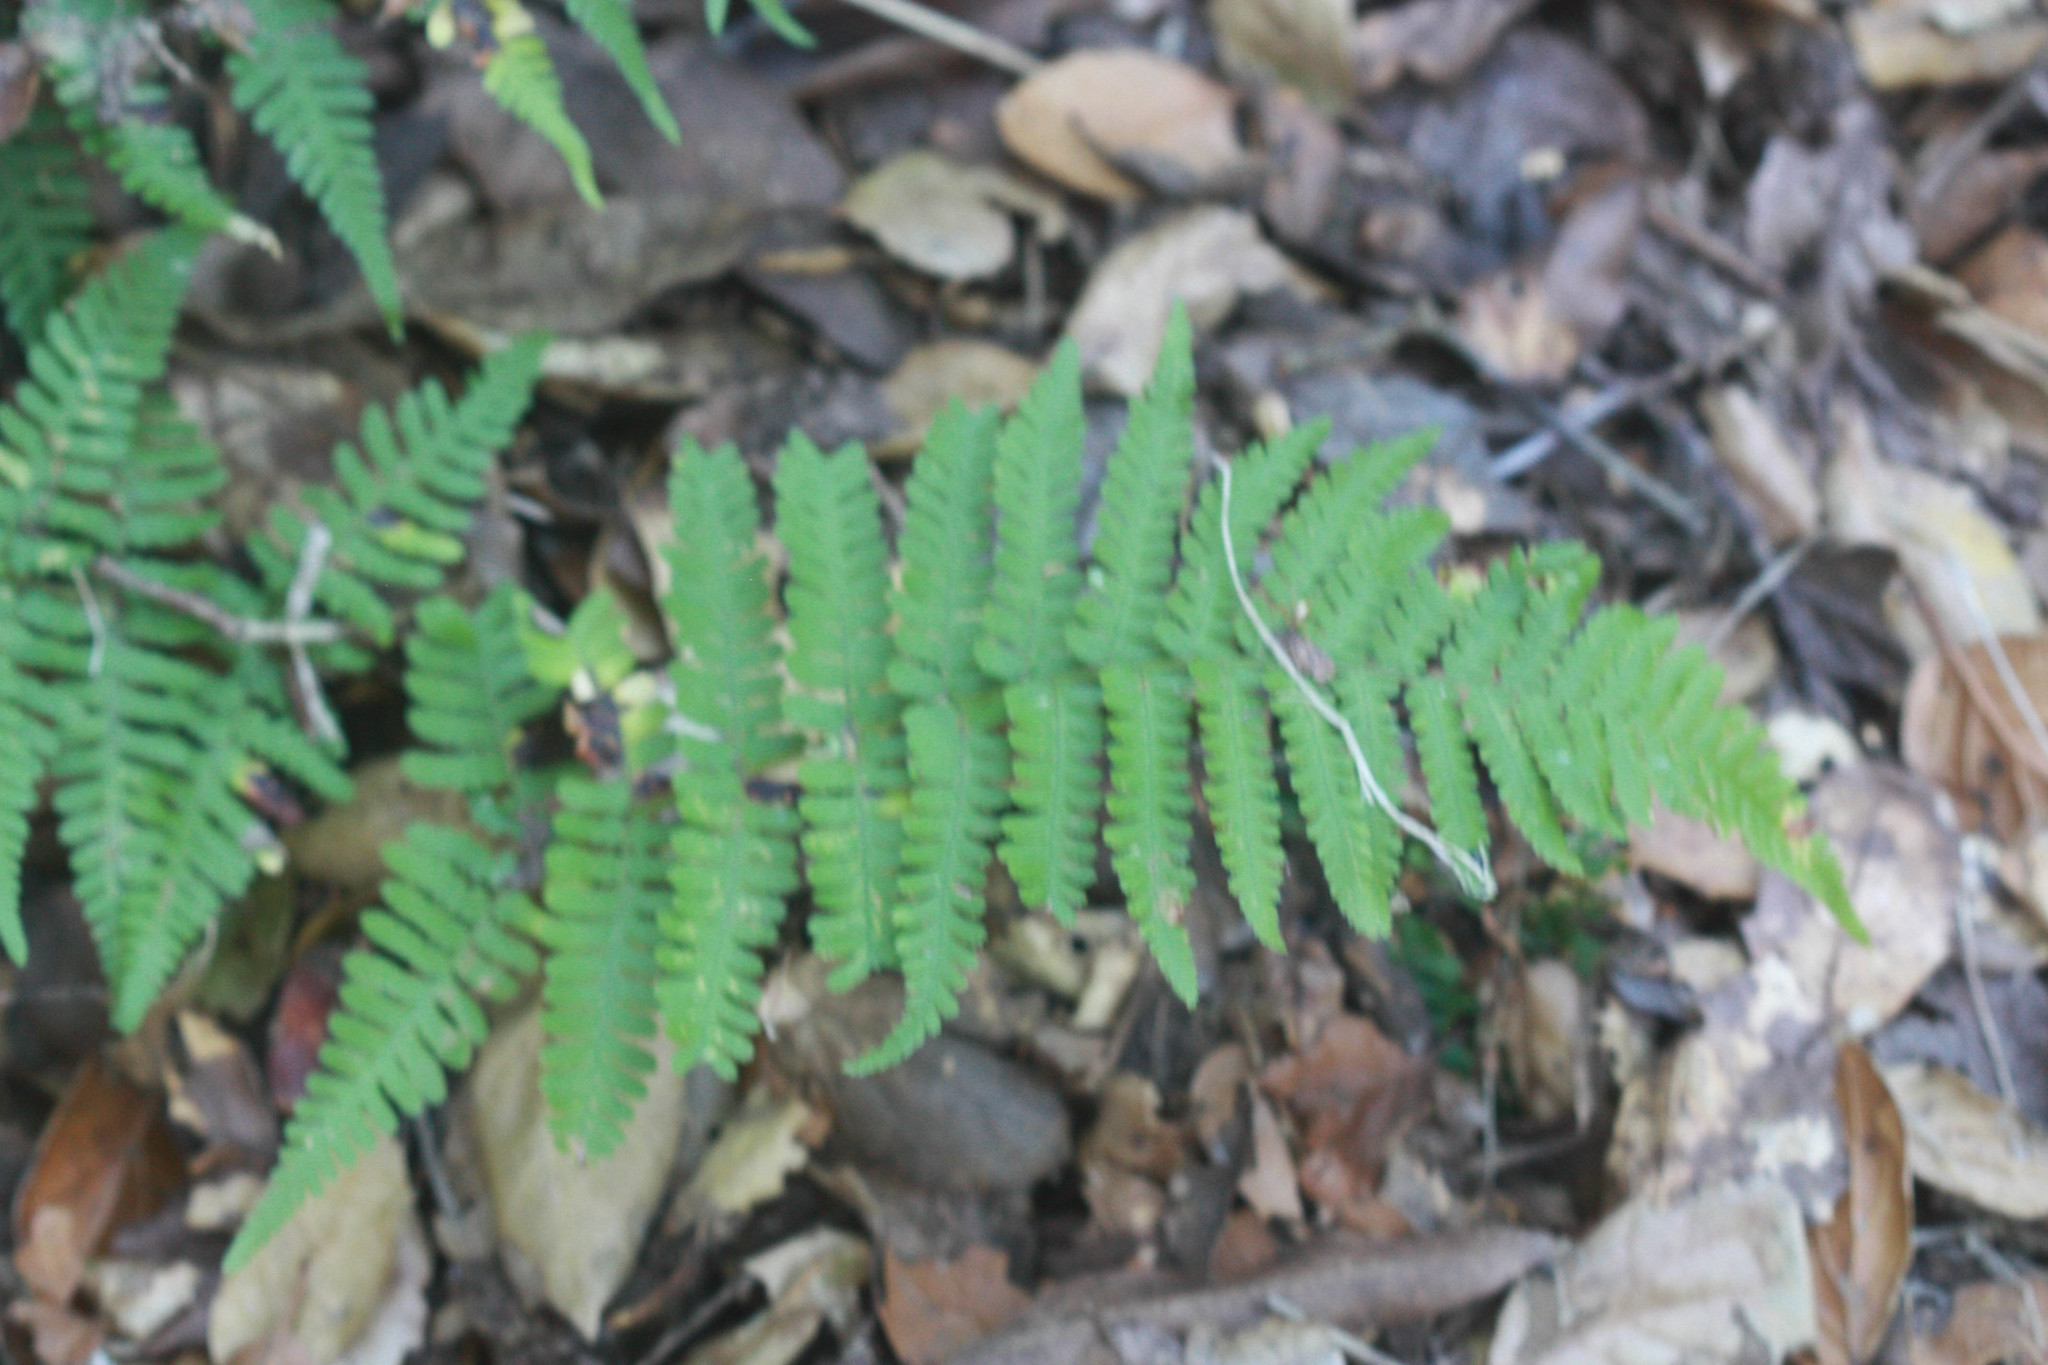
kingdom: Plantae
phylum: Tracheophyta
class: Polypodiopsida
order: Polypodiales
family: Dryopteridaceae
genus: Dryopteris
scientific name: Dryopteris arguta
